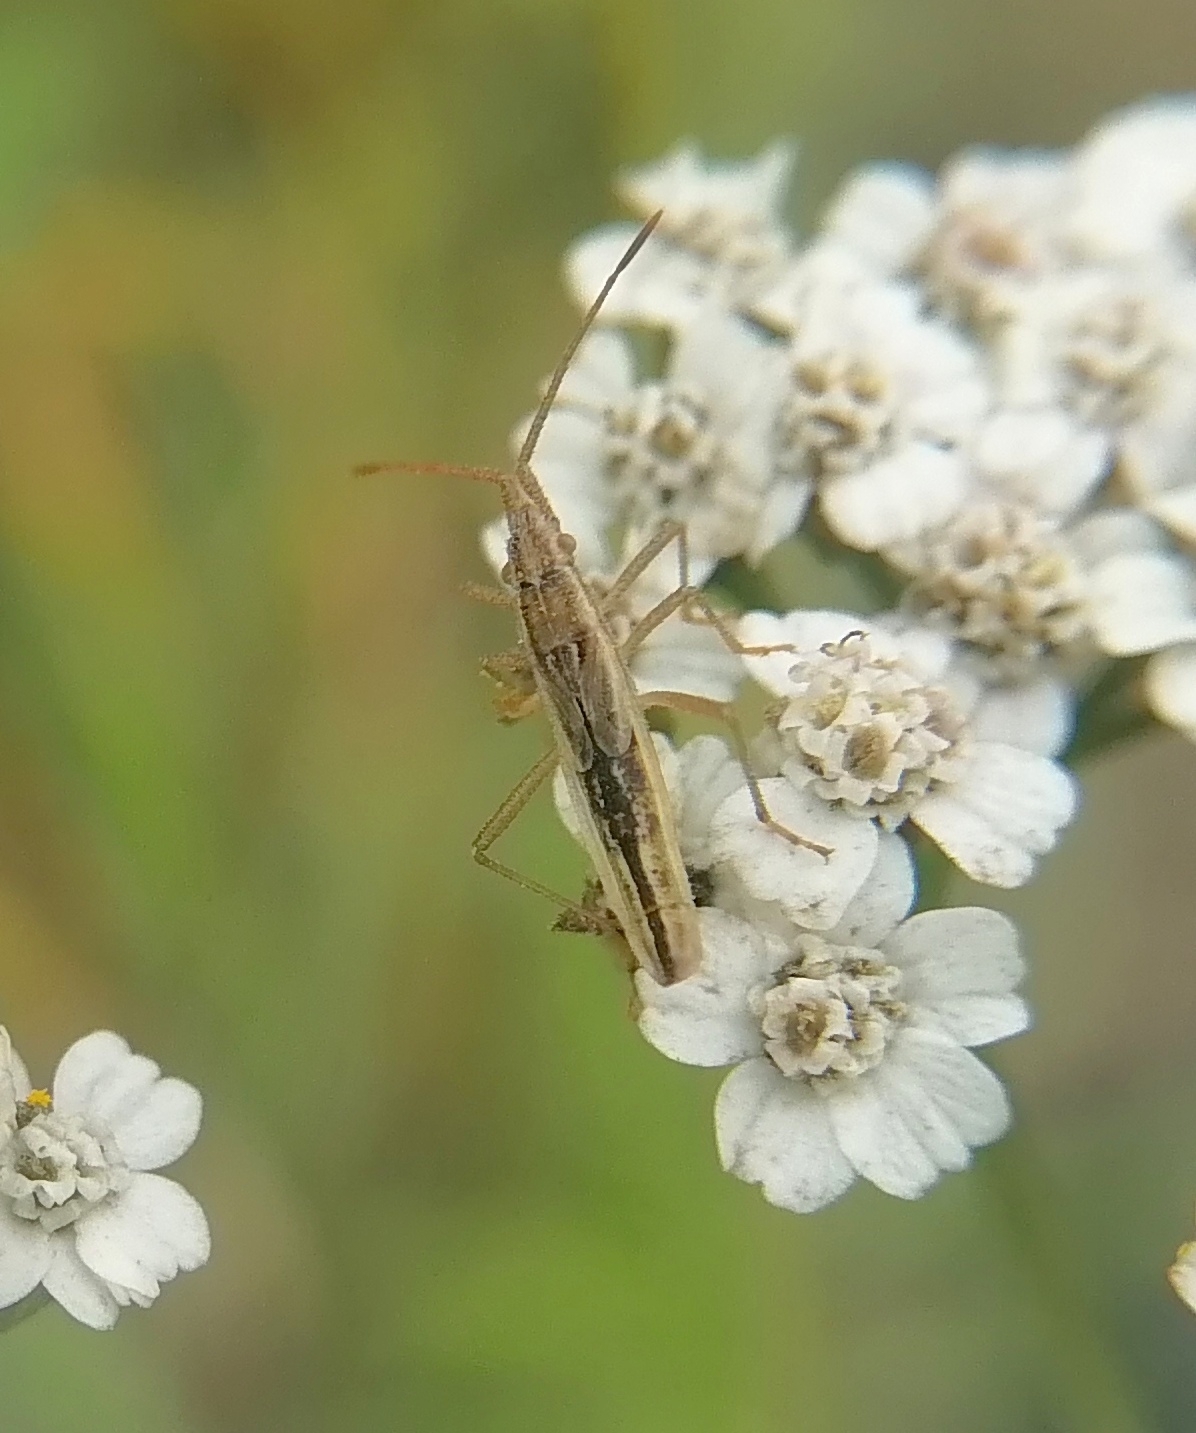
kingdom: Animalia
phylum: Arthropoda
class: Insecta
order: Hemiptera
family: Rhopalidae
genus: Myrmus
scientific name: Myrmus miriformis
